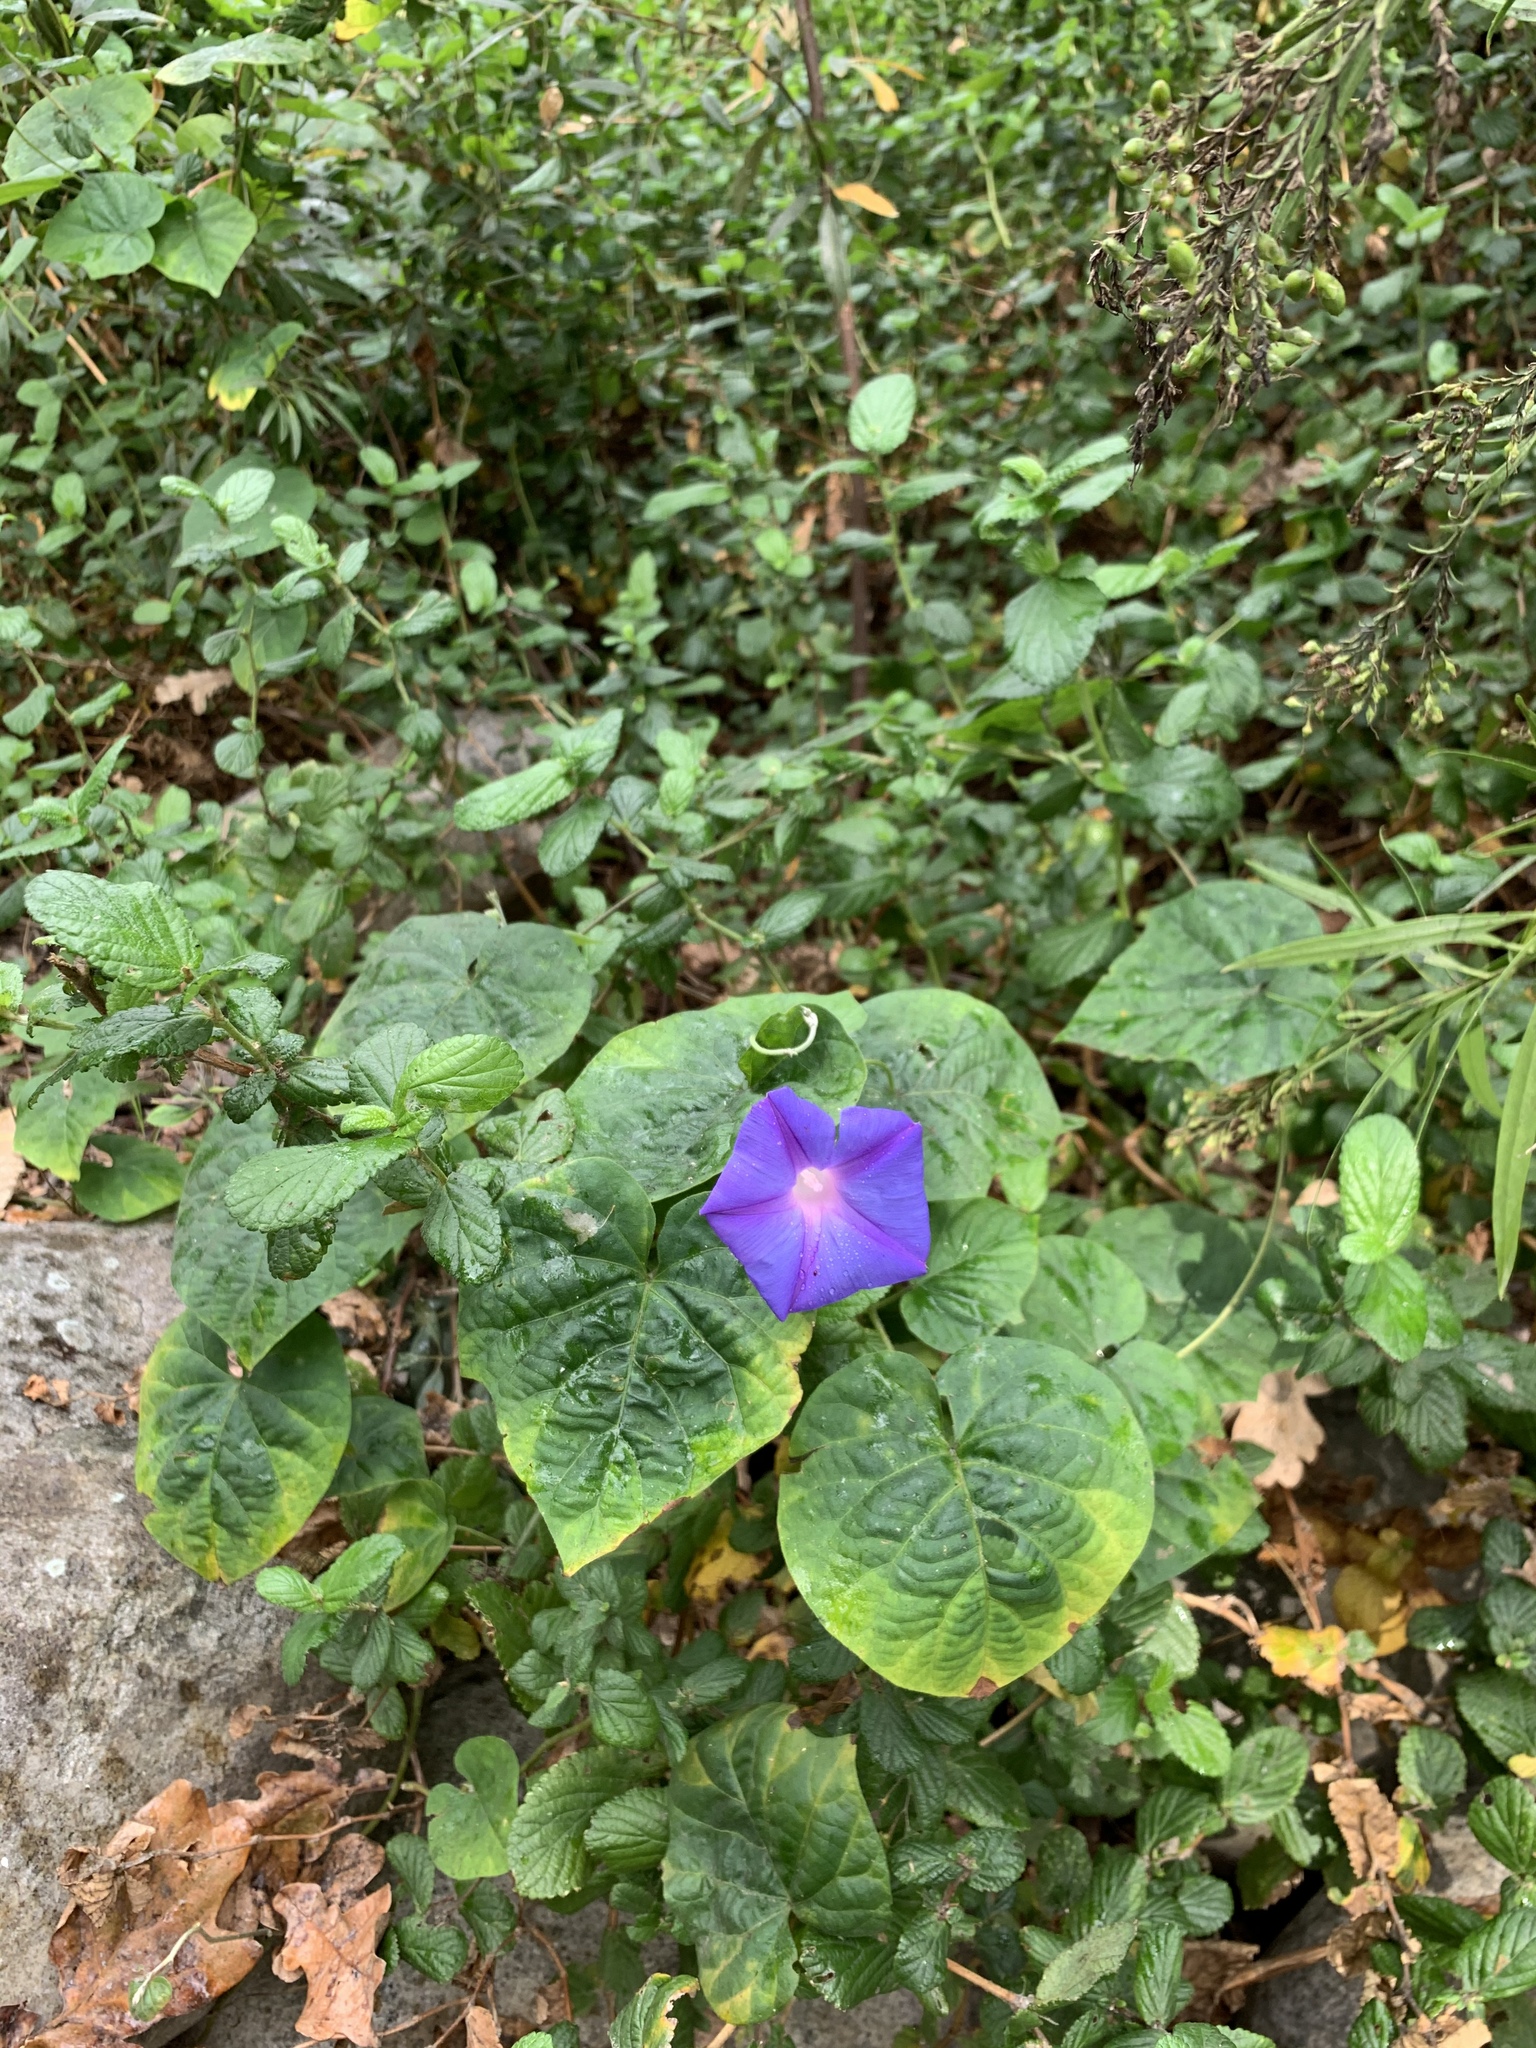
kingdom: Plantae
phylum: Tracheophyta
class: Magnoliopsida
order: Solanales
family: Convolvulaceae
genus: Ipomoea
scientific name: Ipomoea indica
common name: Blue dawnflower
